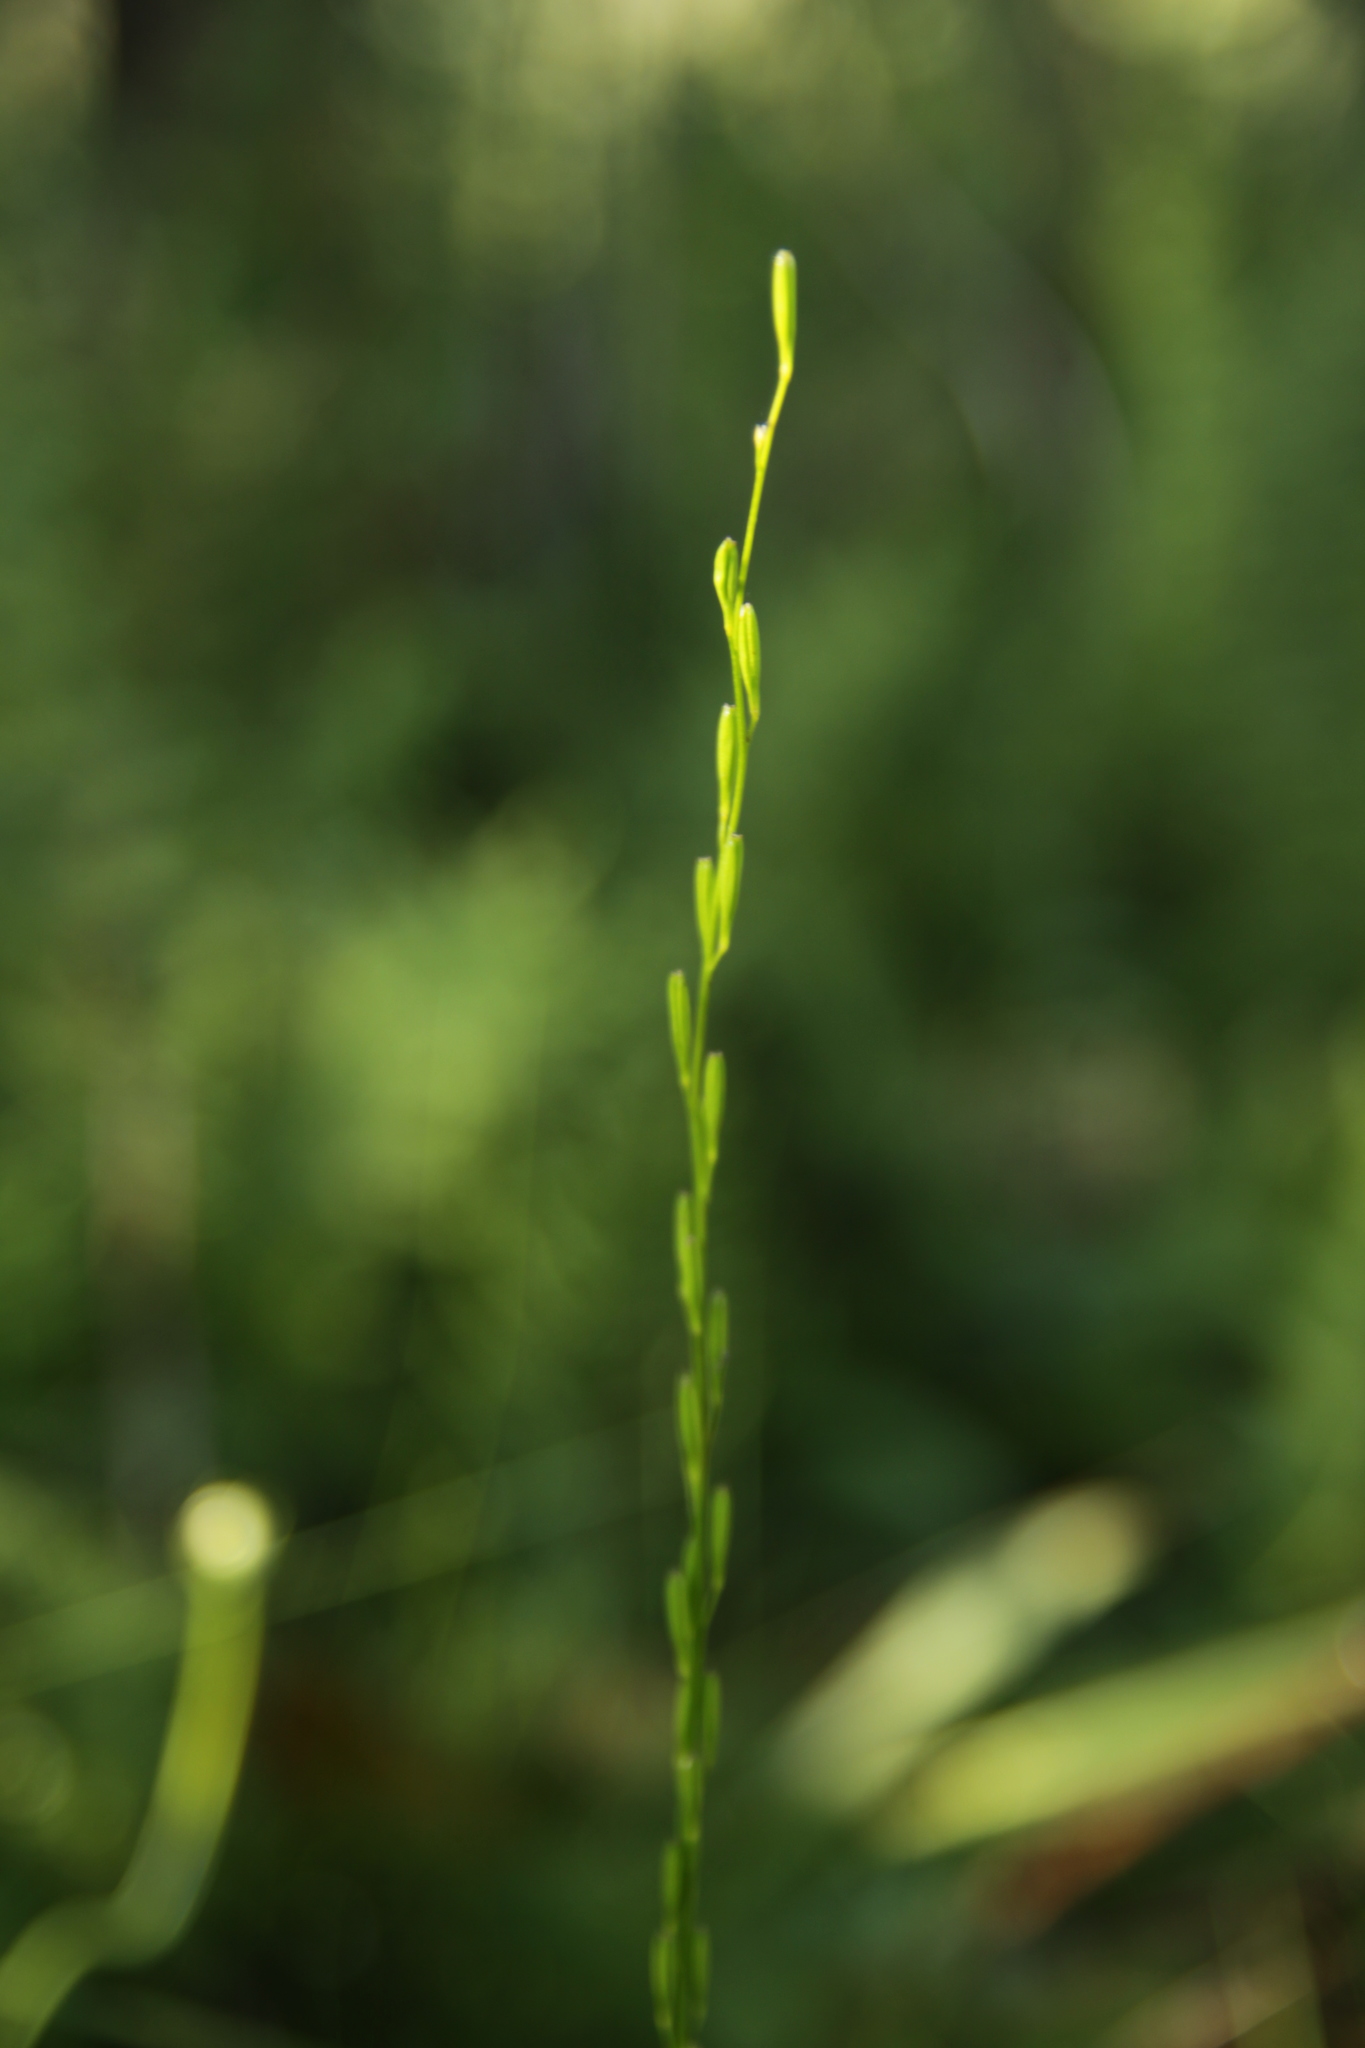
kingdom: Plantae
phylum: Tracheophyta
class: Liliopsida
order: Alismatales
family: Juncaginaceae
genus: Triglochin
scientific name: Triglochin palustris
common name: Marsh arrowgrass
